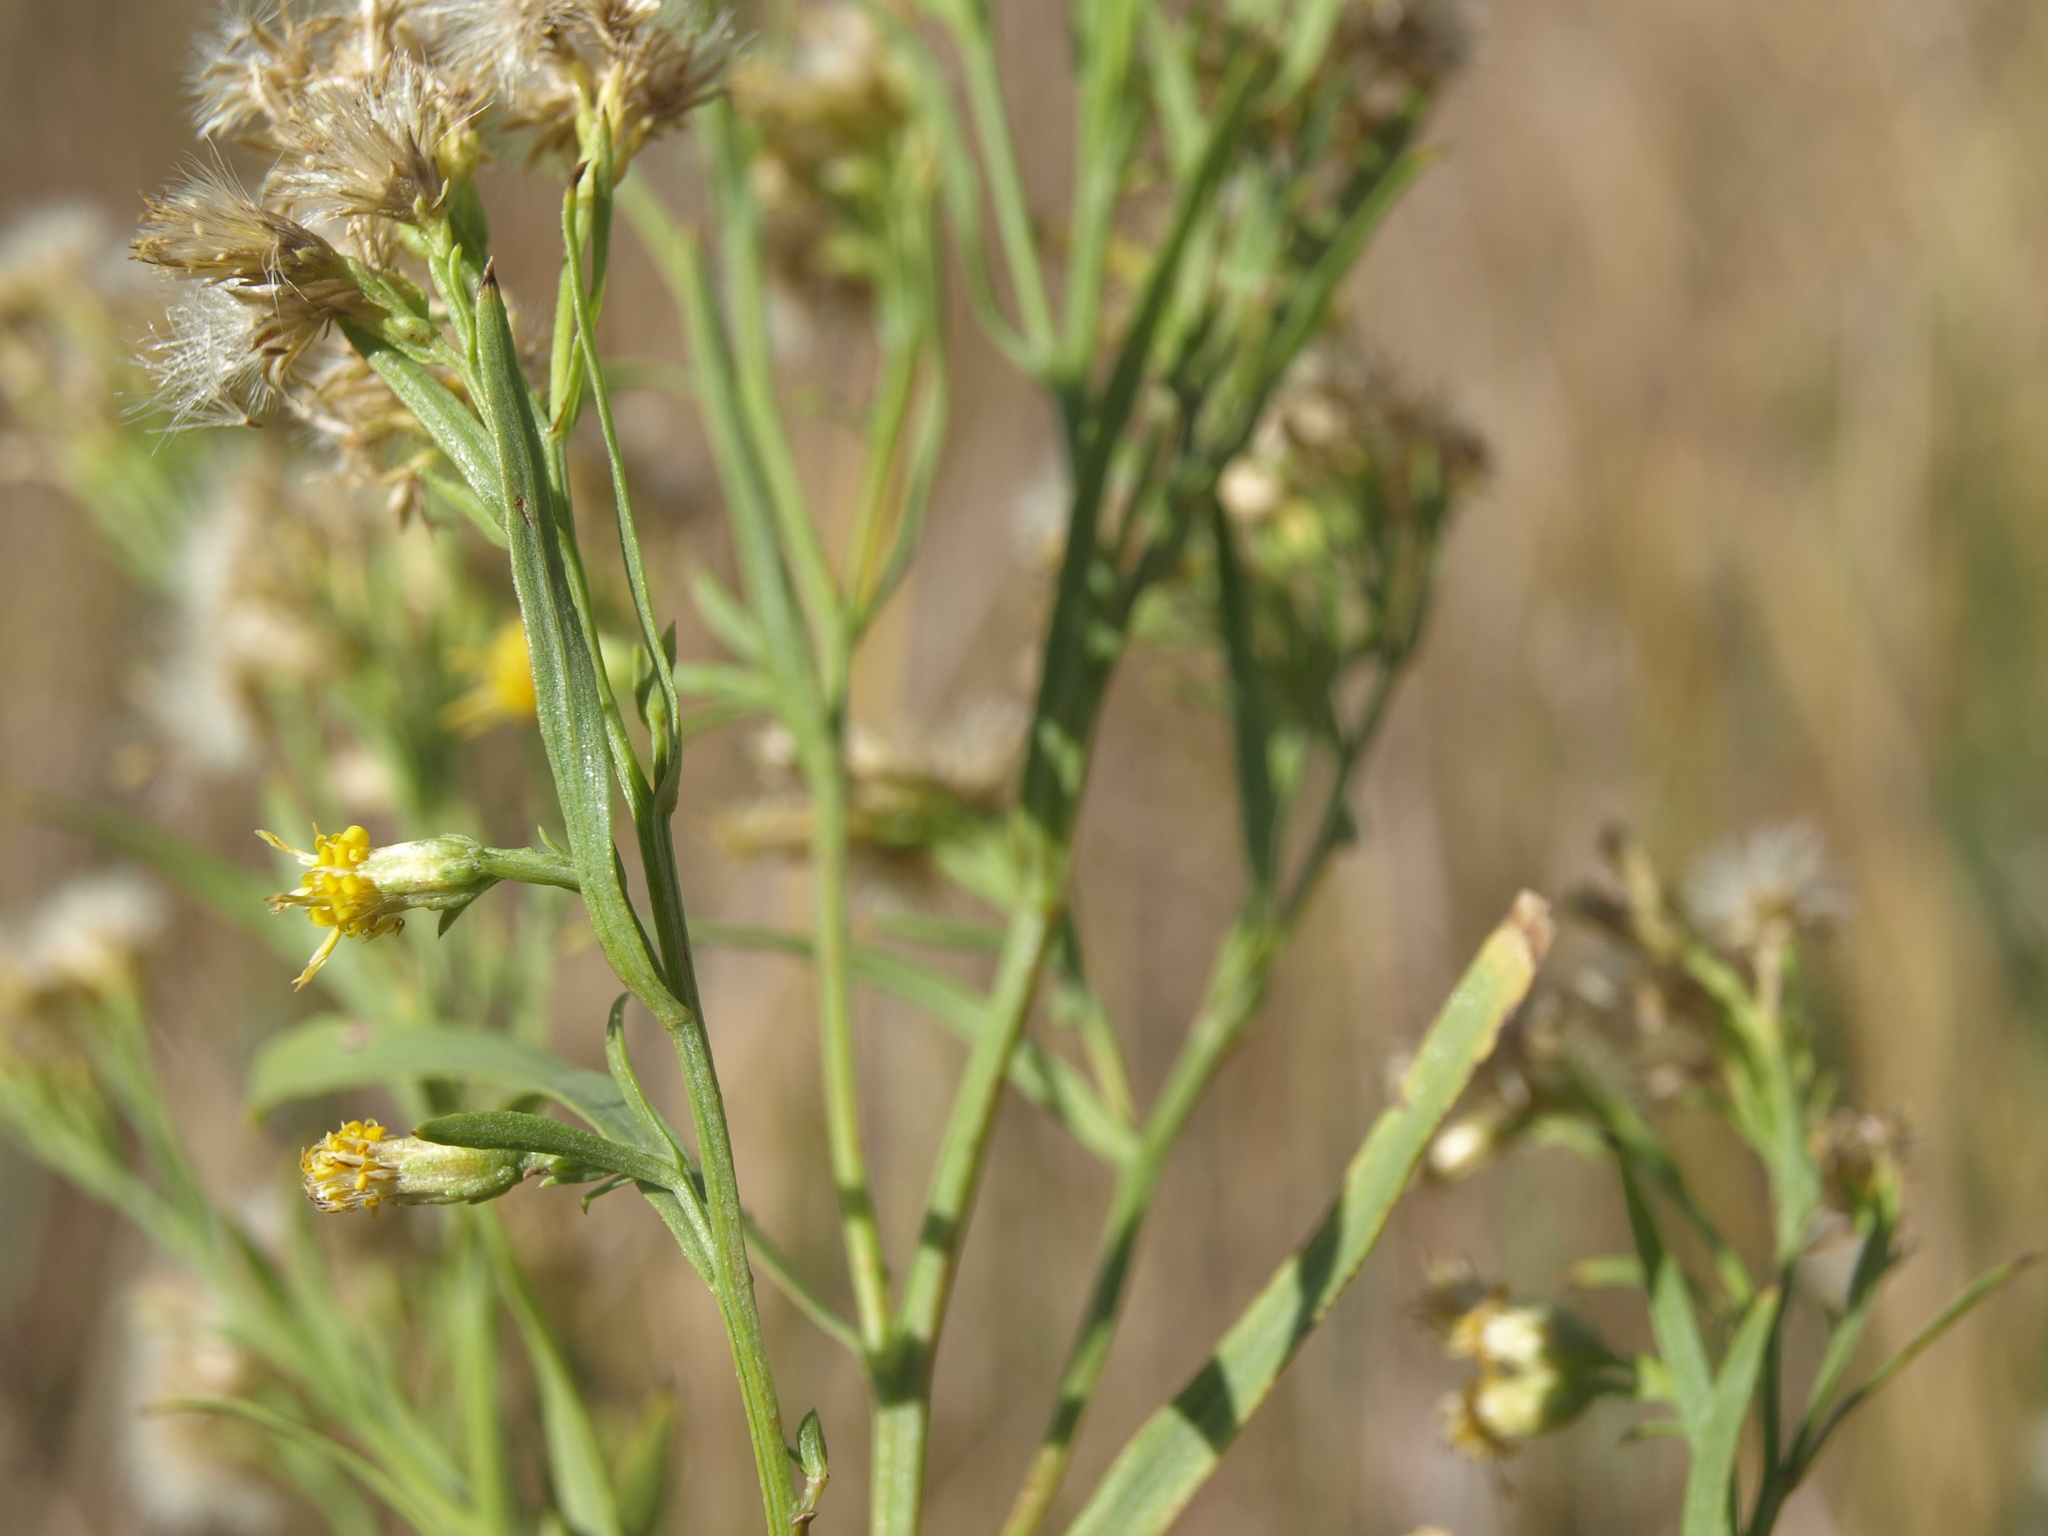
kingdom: Plantae
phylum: Tracheophyta
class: Magnoliopsida
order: Asterales
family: Asteraceae
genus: Euthamia
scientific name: Euthamia occidentalis
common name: Western goldentop
